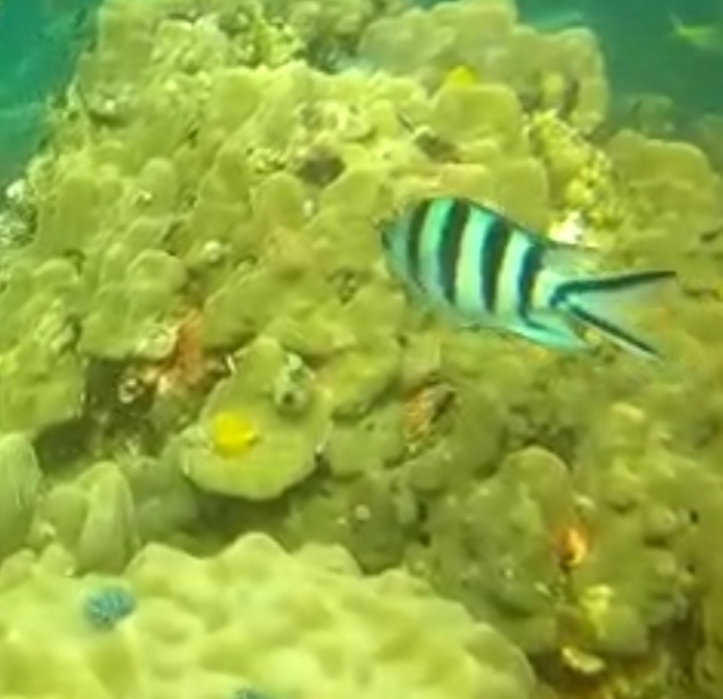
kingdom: Animalia
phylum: Chordata
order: Perciformes
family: Pomacentridae
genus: Abudefduf
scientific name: Abudefduf sexfasciatus
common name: Scissortail sergeant
